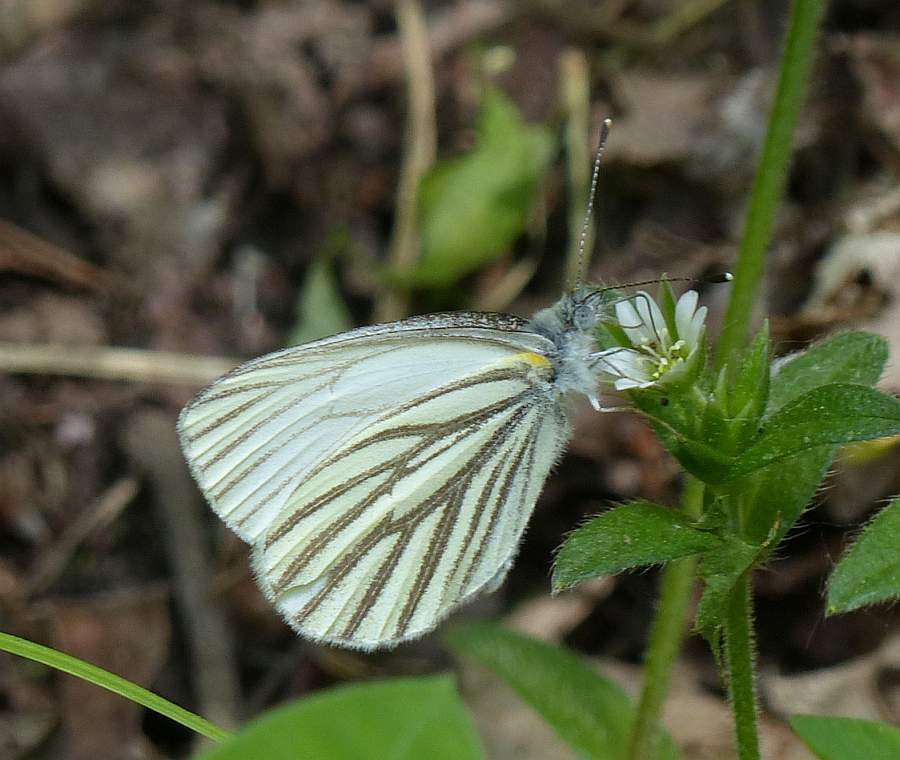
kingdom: Animalia
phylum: Arthropoda
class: Insecta
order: Lepidoptera
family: Pieridae
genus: Pieris
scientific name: Pieris oleracea
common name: Mustard white
